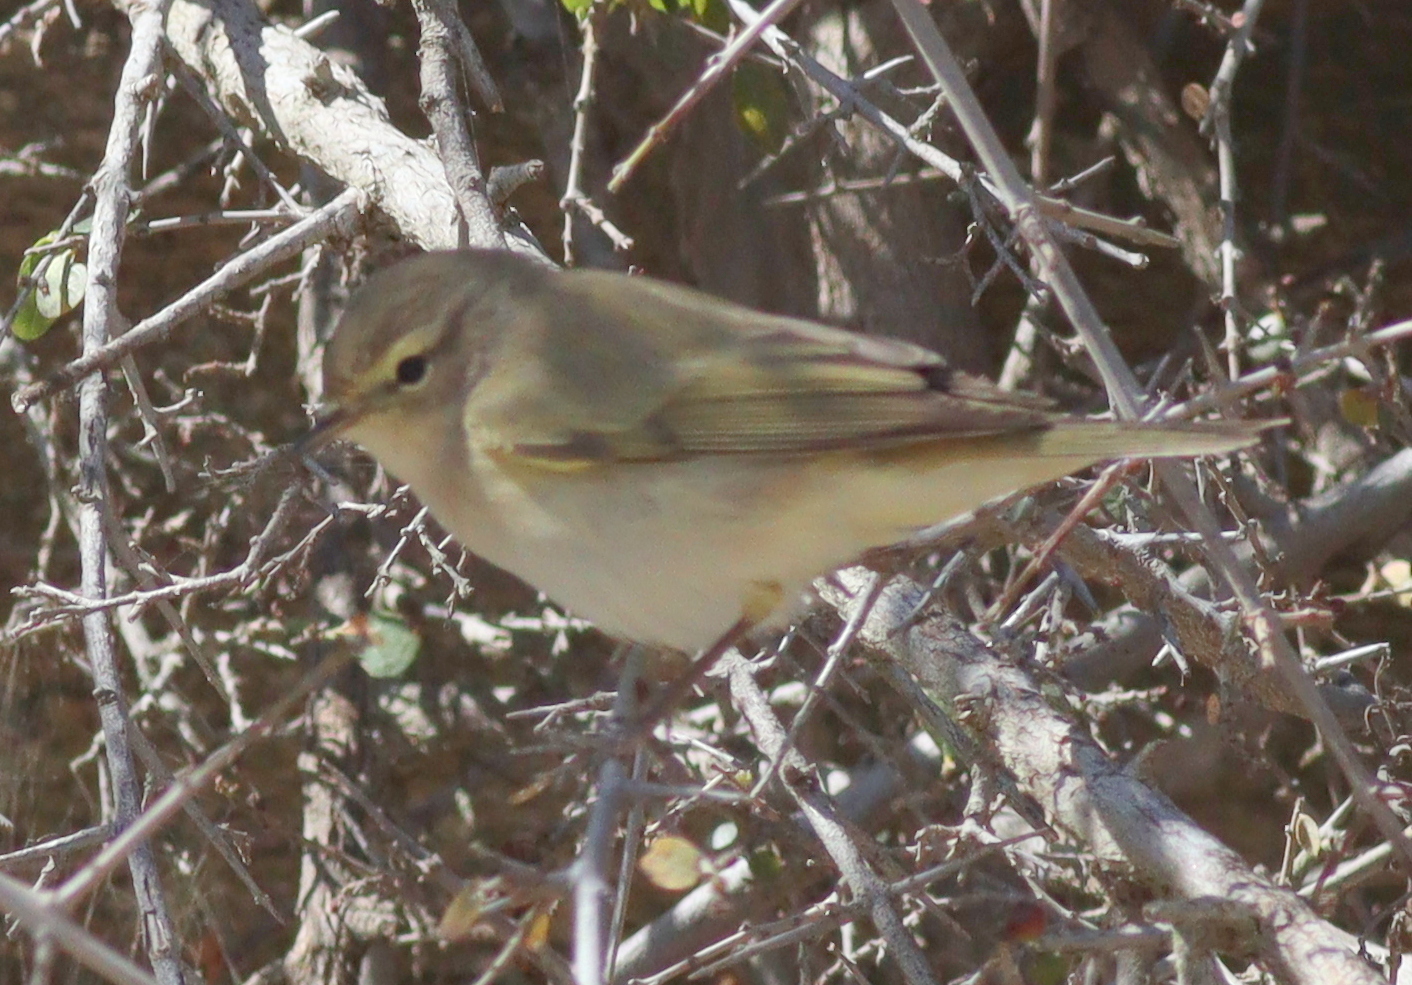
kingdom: Animalia
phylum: Chordata
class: Aves
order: Passeriformes
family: Phylloscopidae
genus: Phylloscopus
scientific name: Phylloscopus collybita
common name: Common chiffchaff
